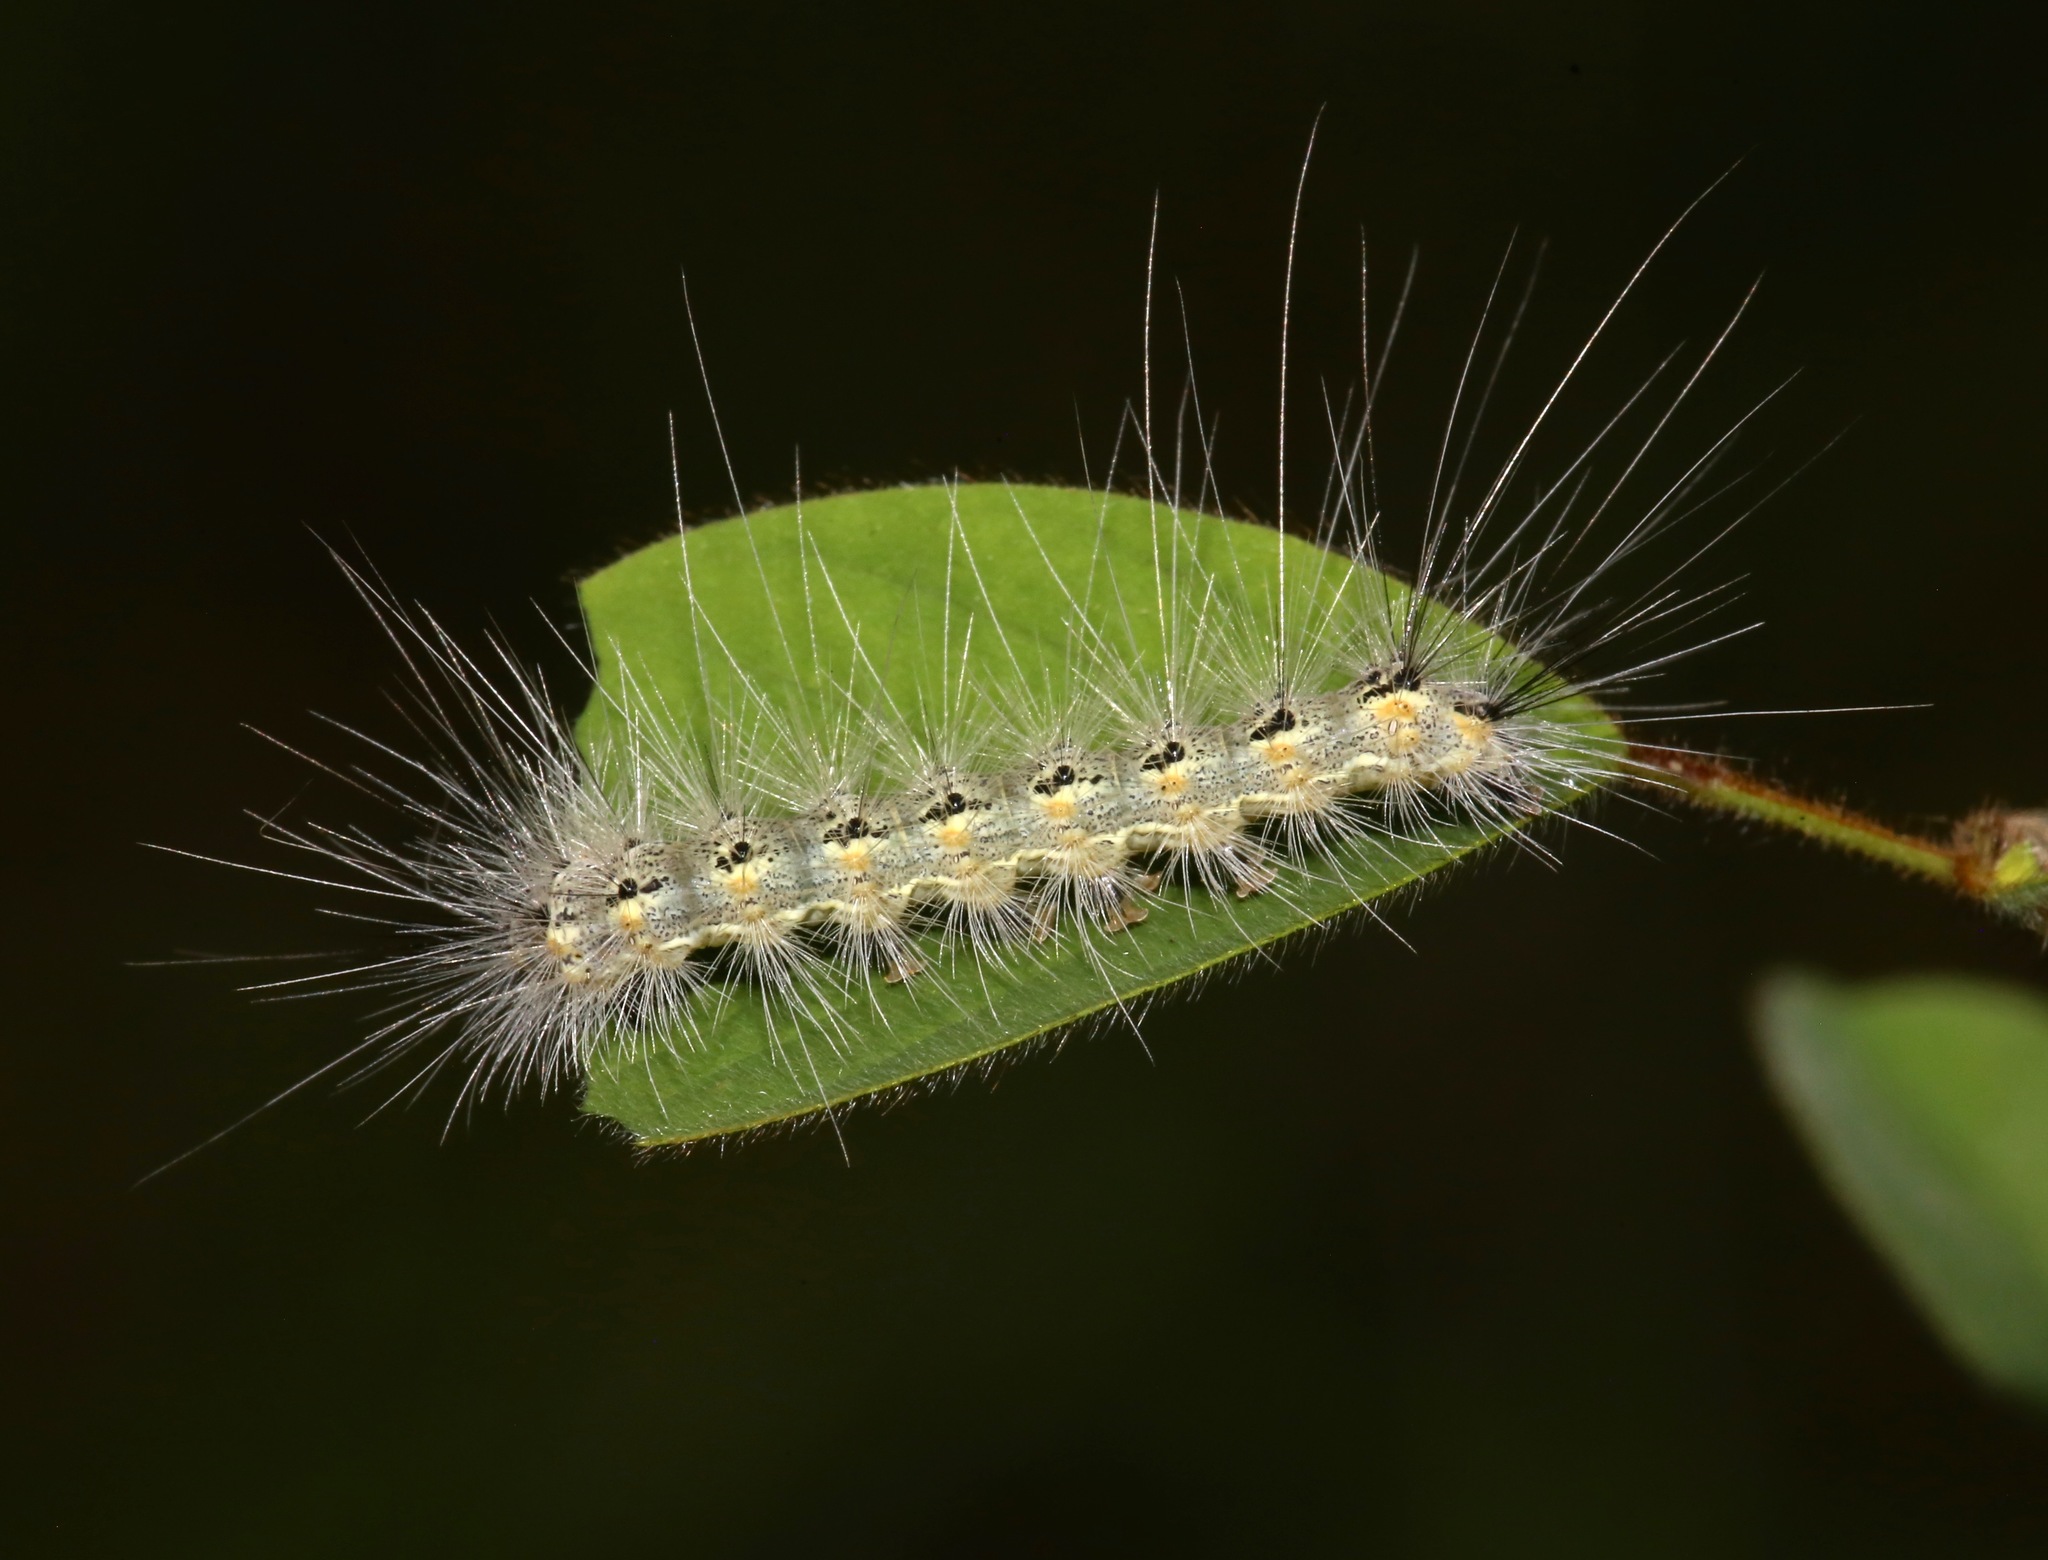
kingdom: Animalia
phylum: Arthropoda
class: Insecta
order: Lepidoptera
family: Erebidae
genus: Hyphantria
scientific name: Hyphantria cunea
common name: American white moth
